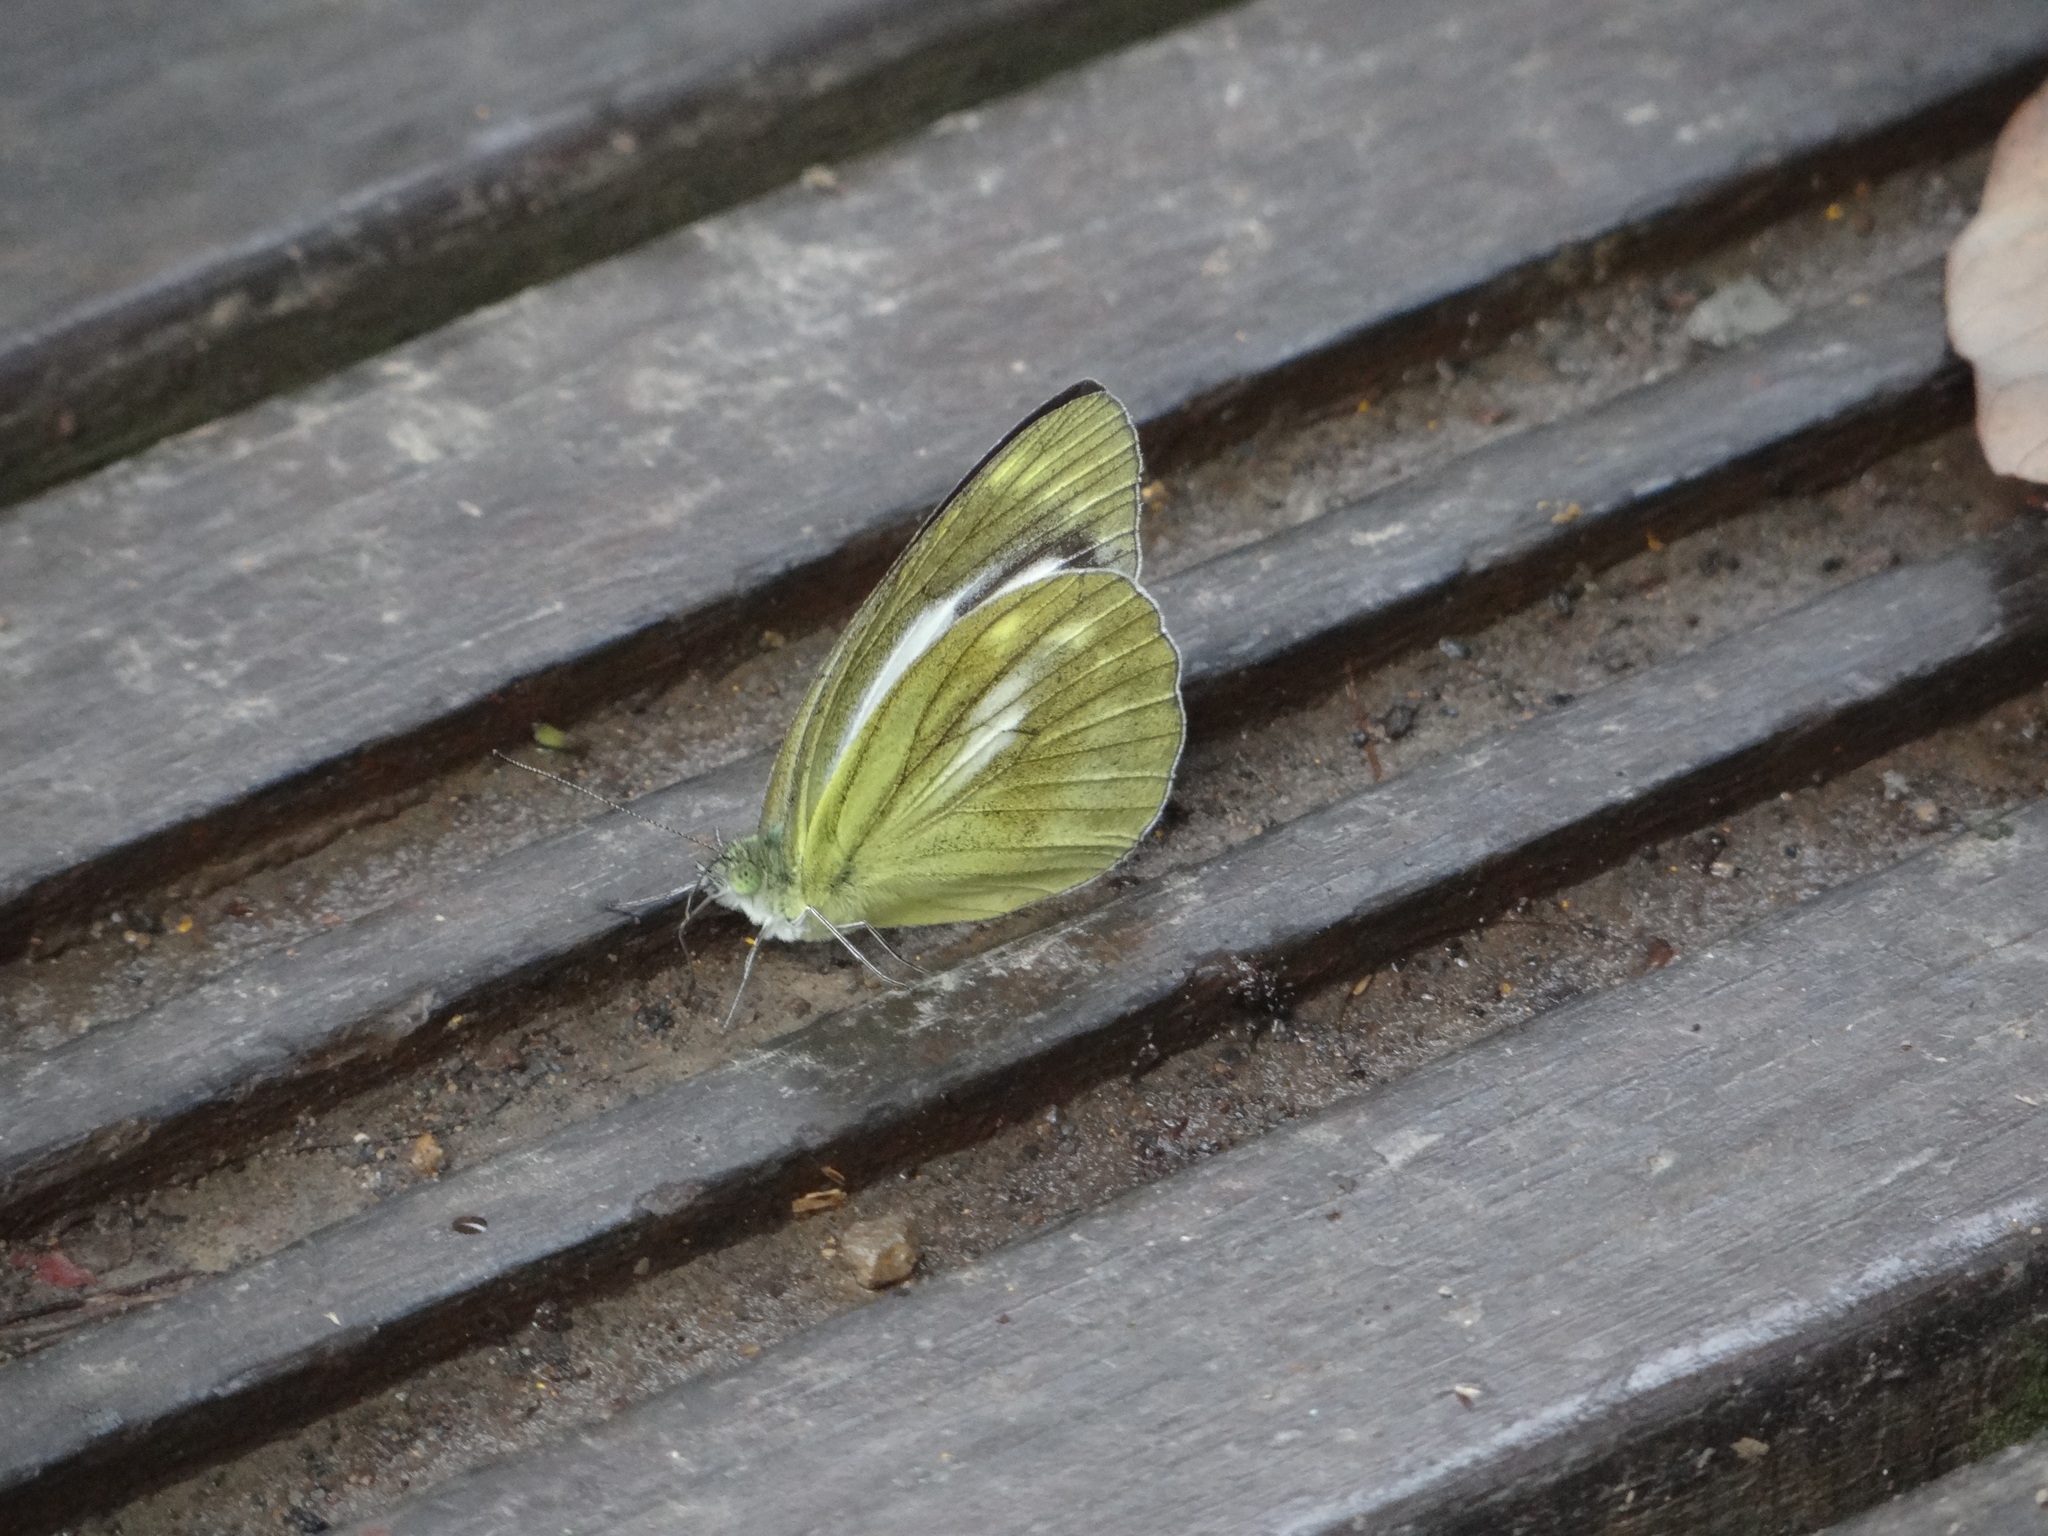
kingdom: Animalia
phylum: Arthropoda
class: Insecta
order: Lepidoptera
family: Pieridae
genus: Cepora
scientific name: Cepora nadina
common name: Lesser gull
